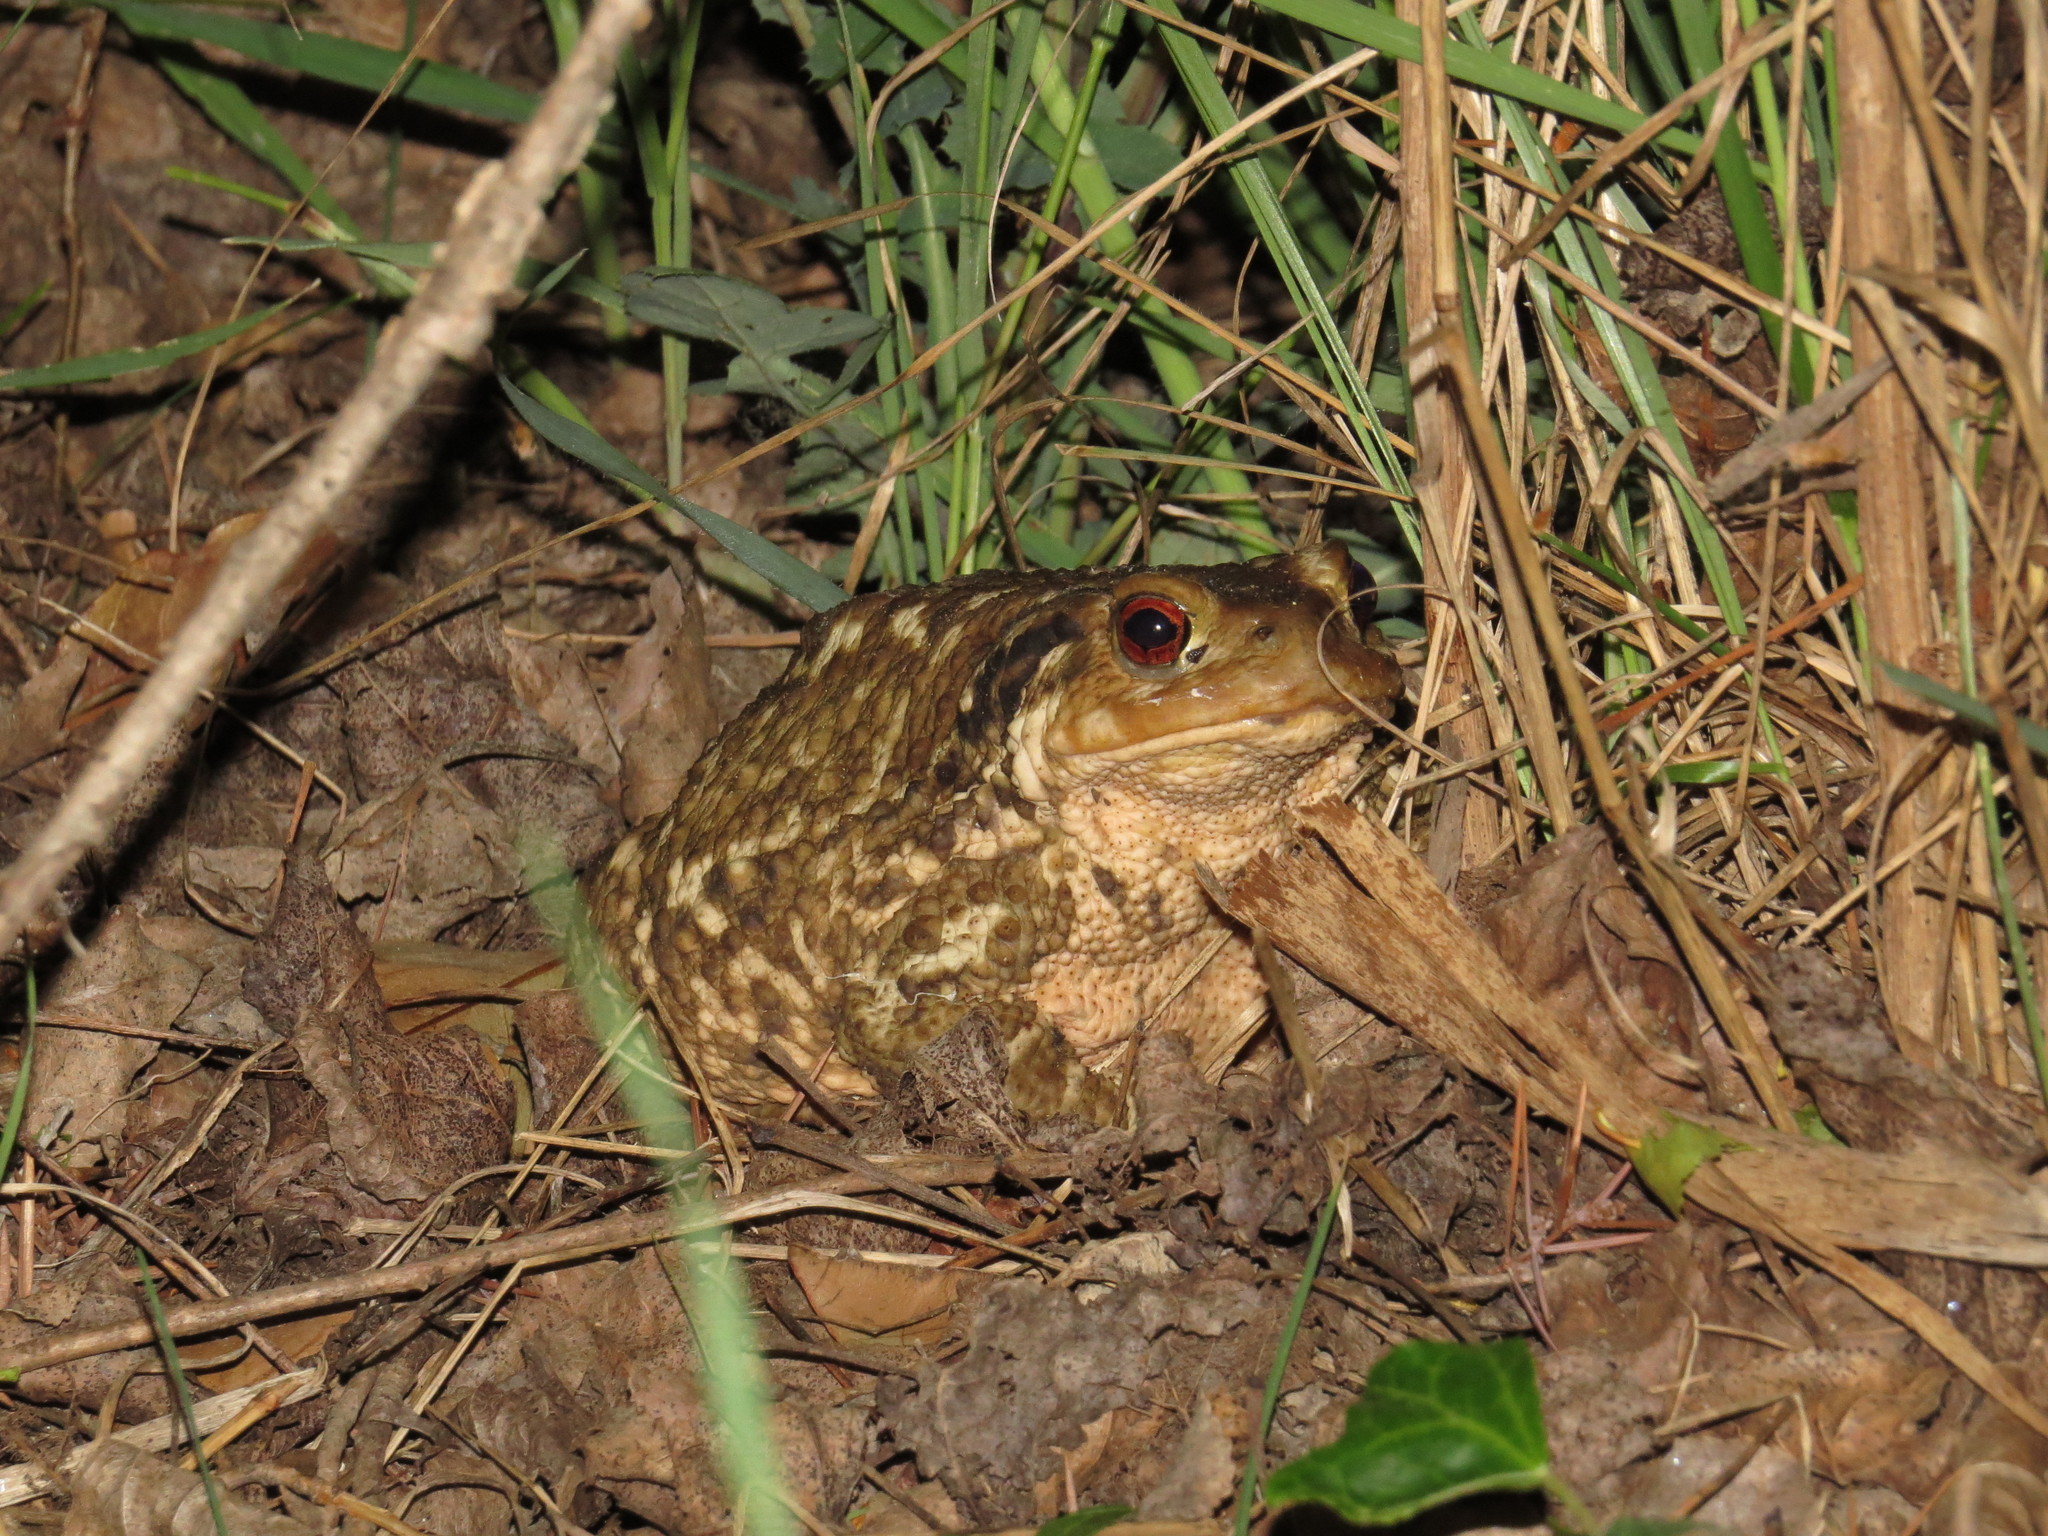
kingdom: Animalia
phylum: Chordata
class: Amphibia
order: Anura
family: Bufonidae
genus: Bufo
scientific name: Bufo spinosus
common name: Western common toad
